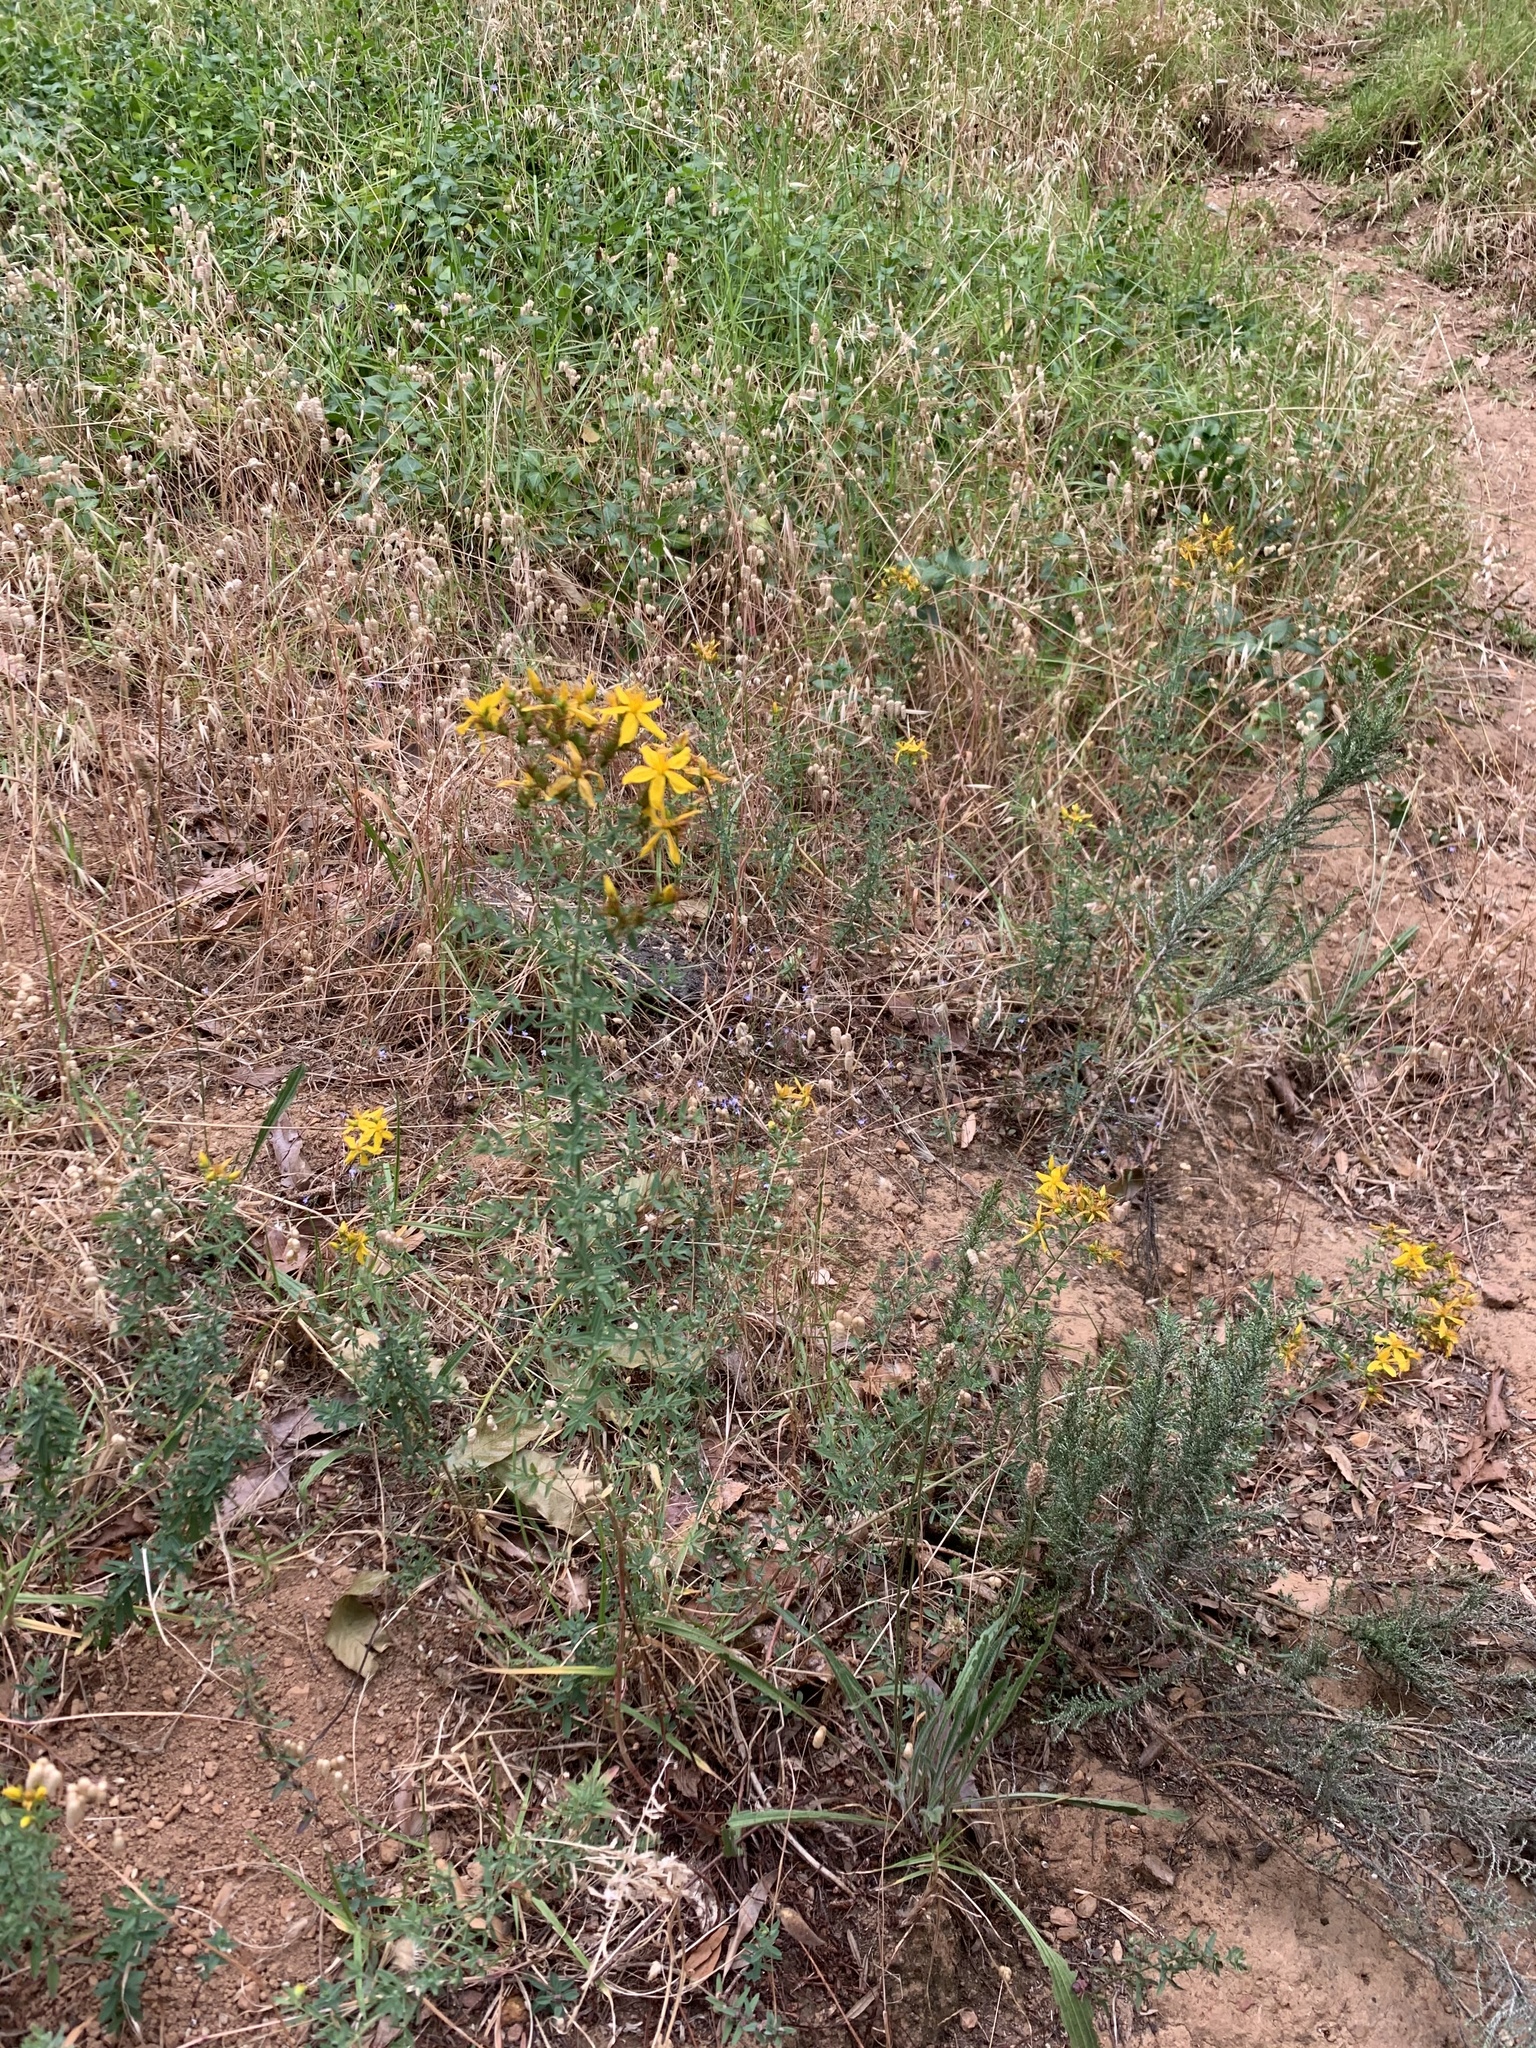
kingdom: Plantae
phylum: Tracheophyta
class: Magnoliopsida
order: Malpighiales
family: Hypericaceae
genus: Hypericum
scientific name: Hypericum perforatum
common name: Common st. johnswort
